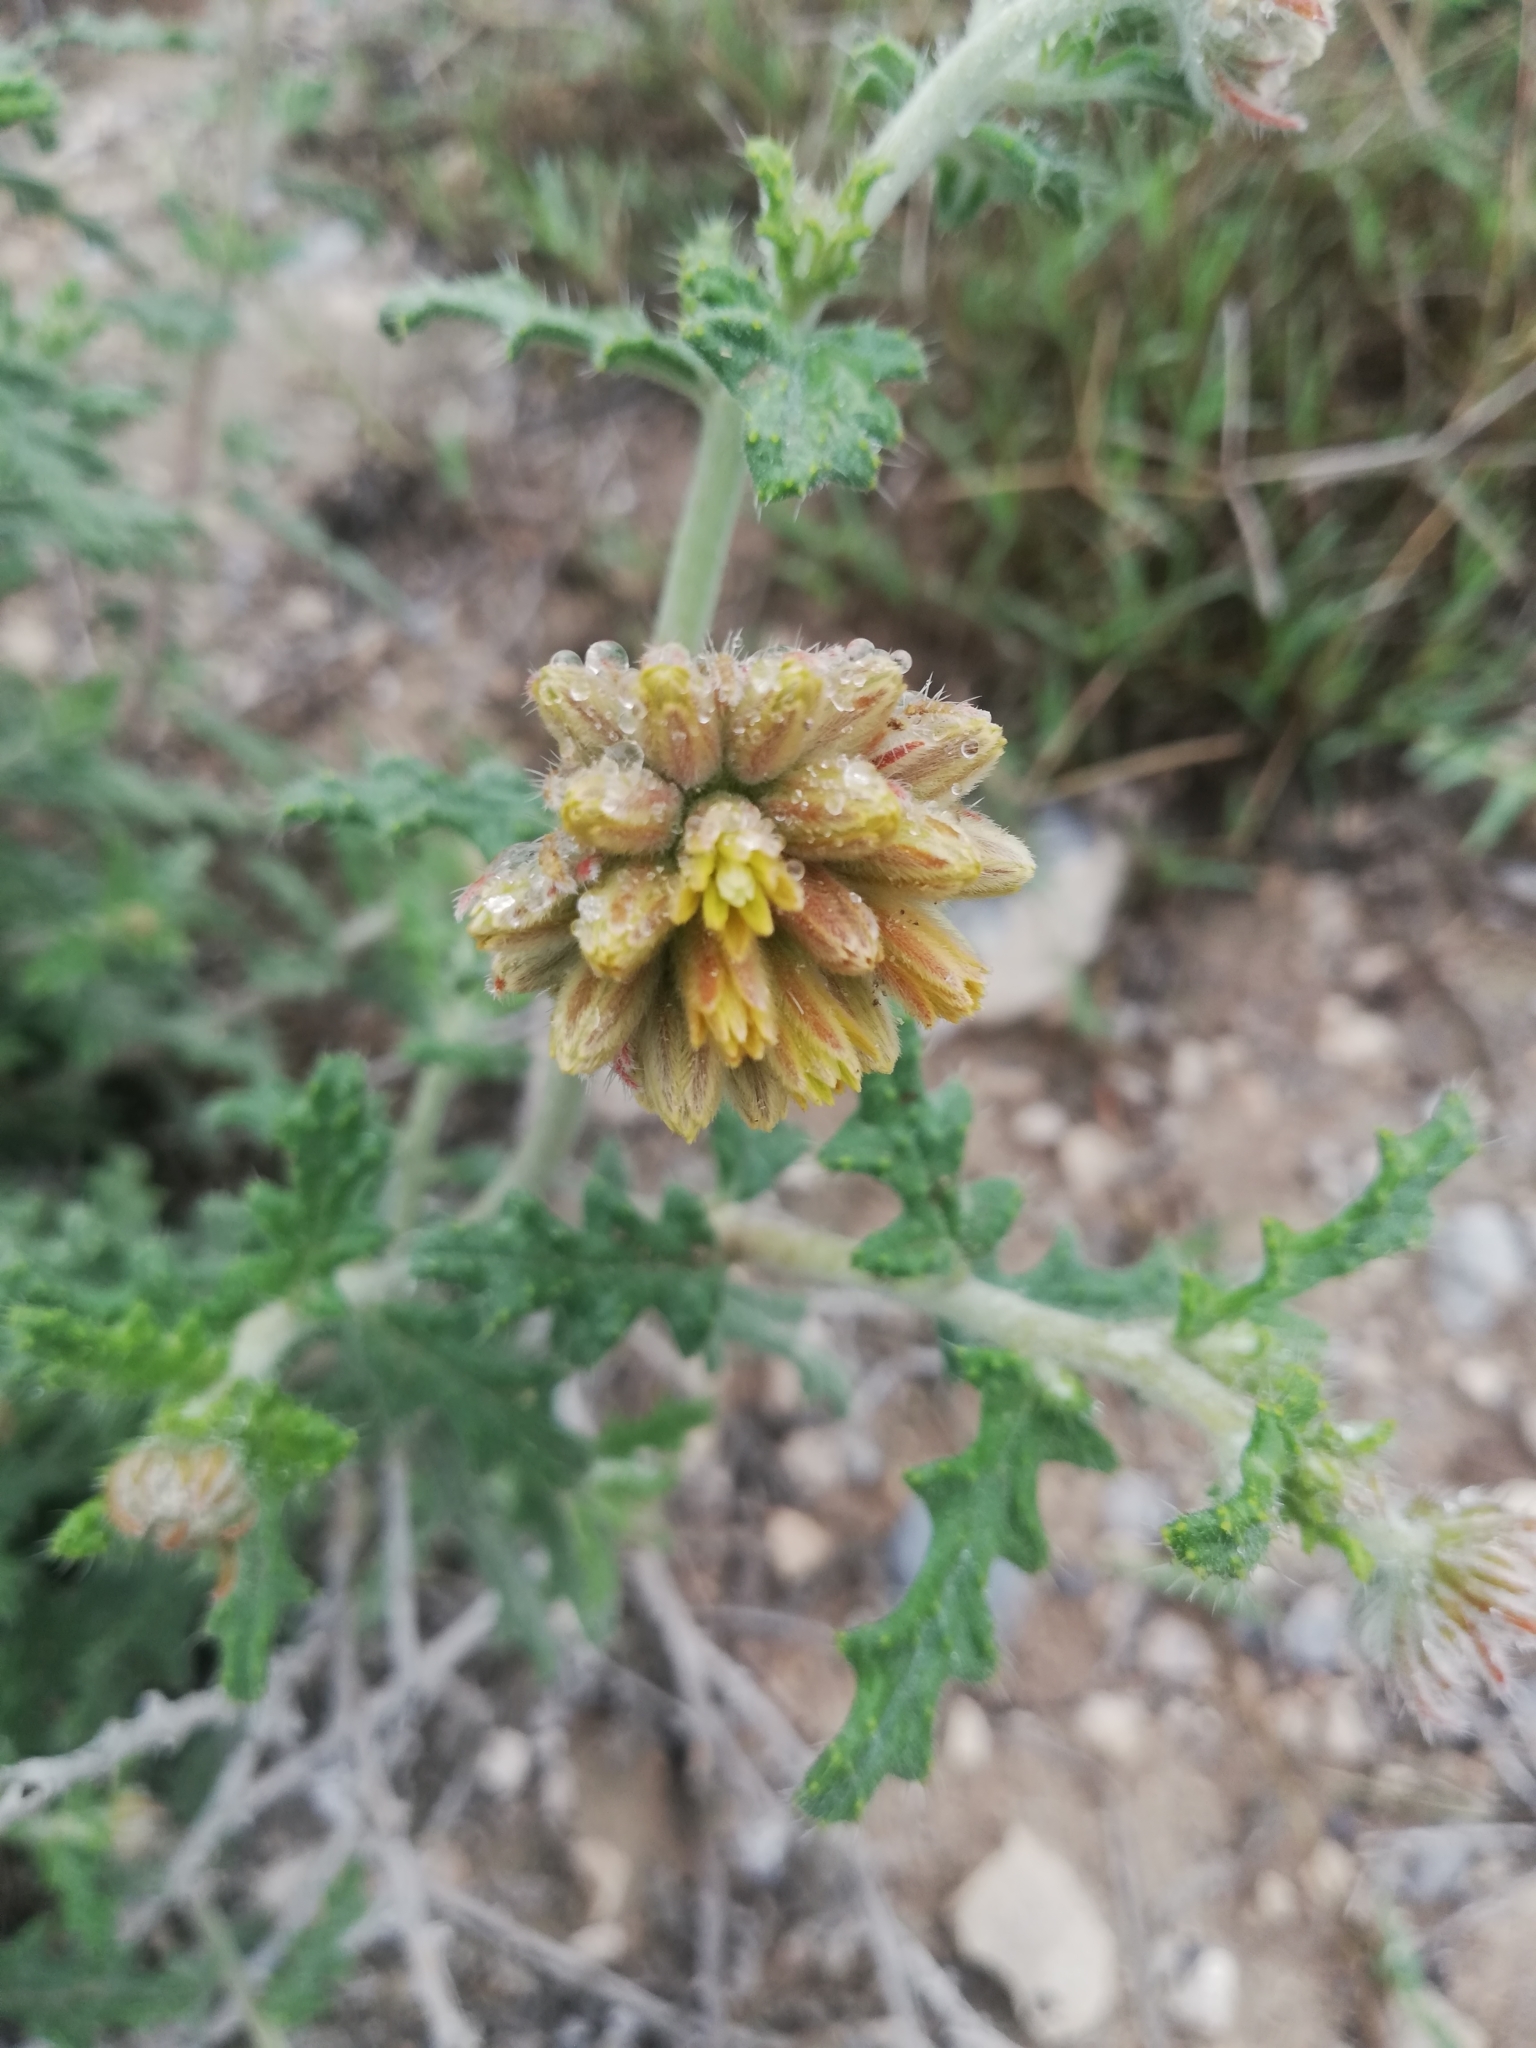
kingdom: Plantae
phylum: Tracheophyta
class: Magnoliopsida
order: Cornales
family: Loasaceae
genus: Cevallia
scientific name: Cevallia sinuata
